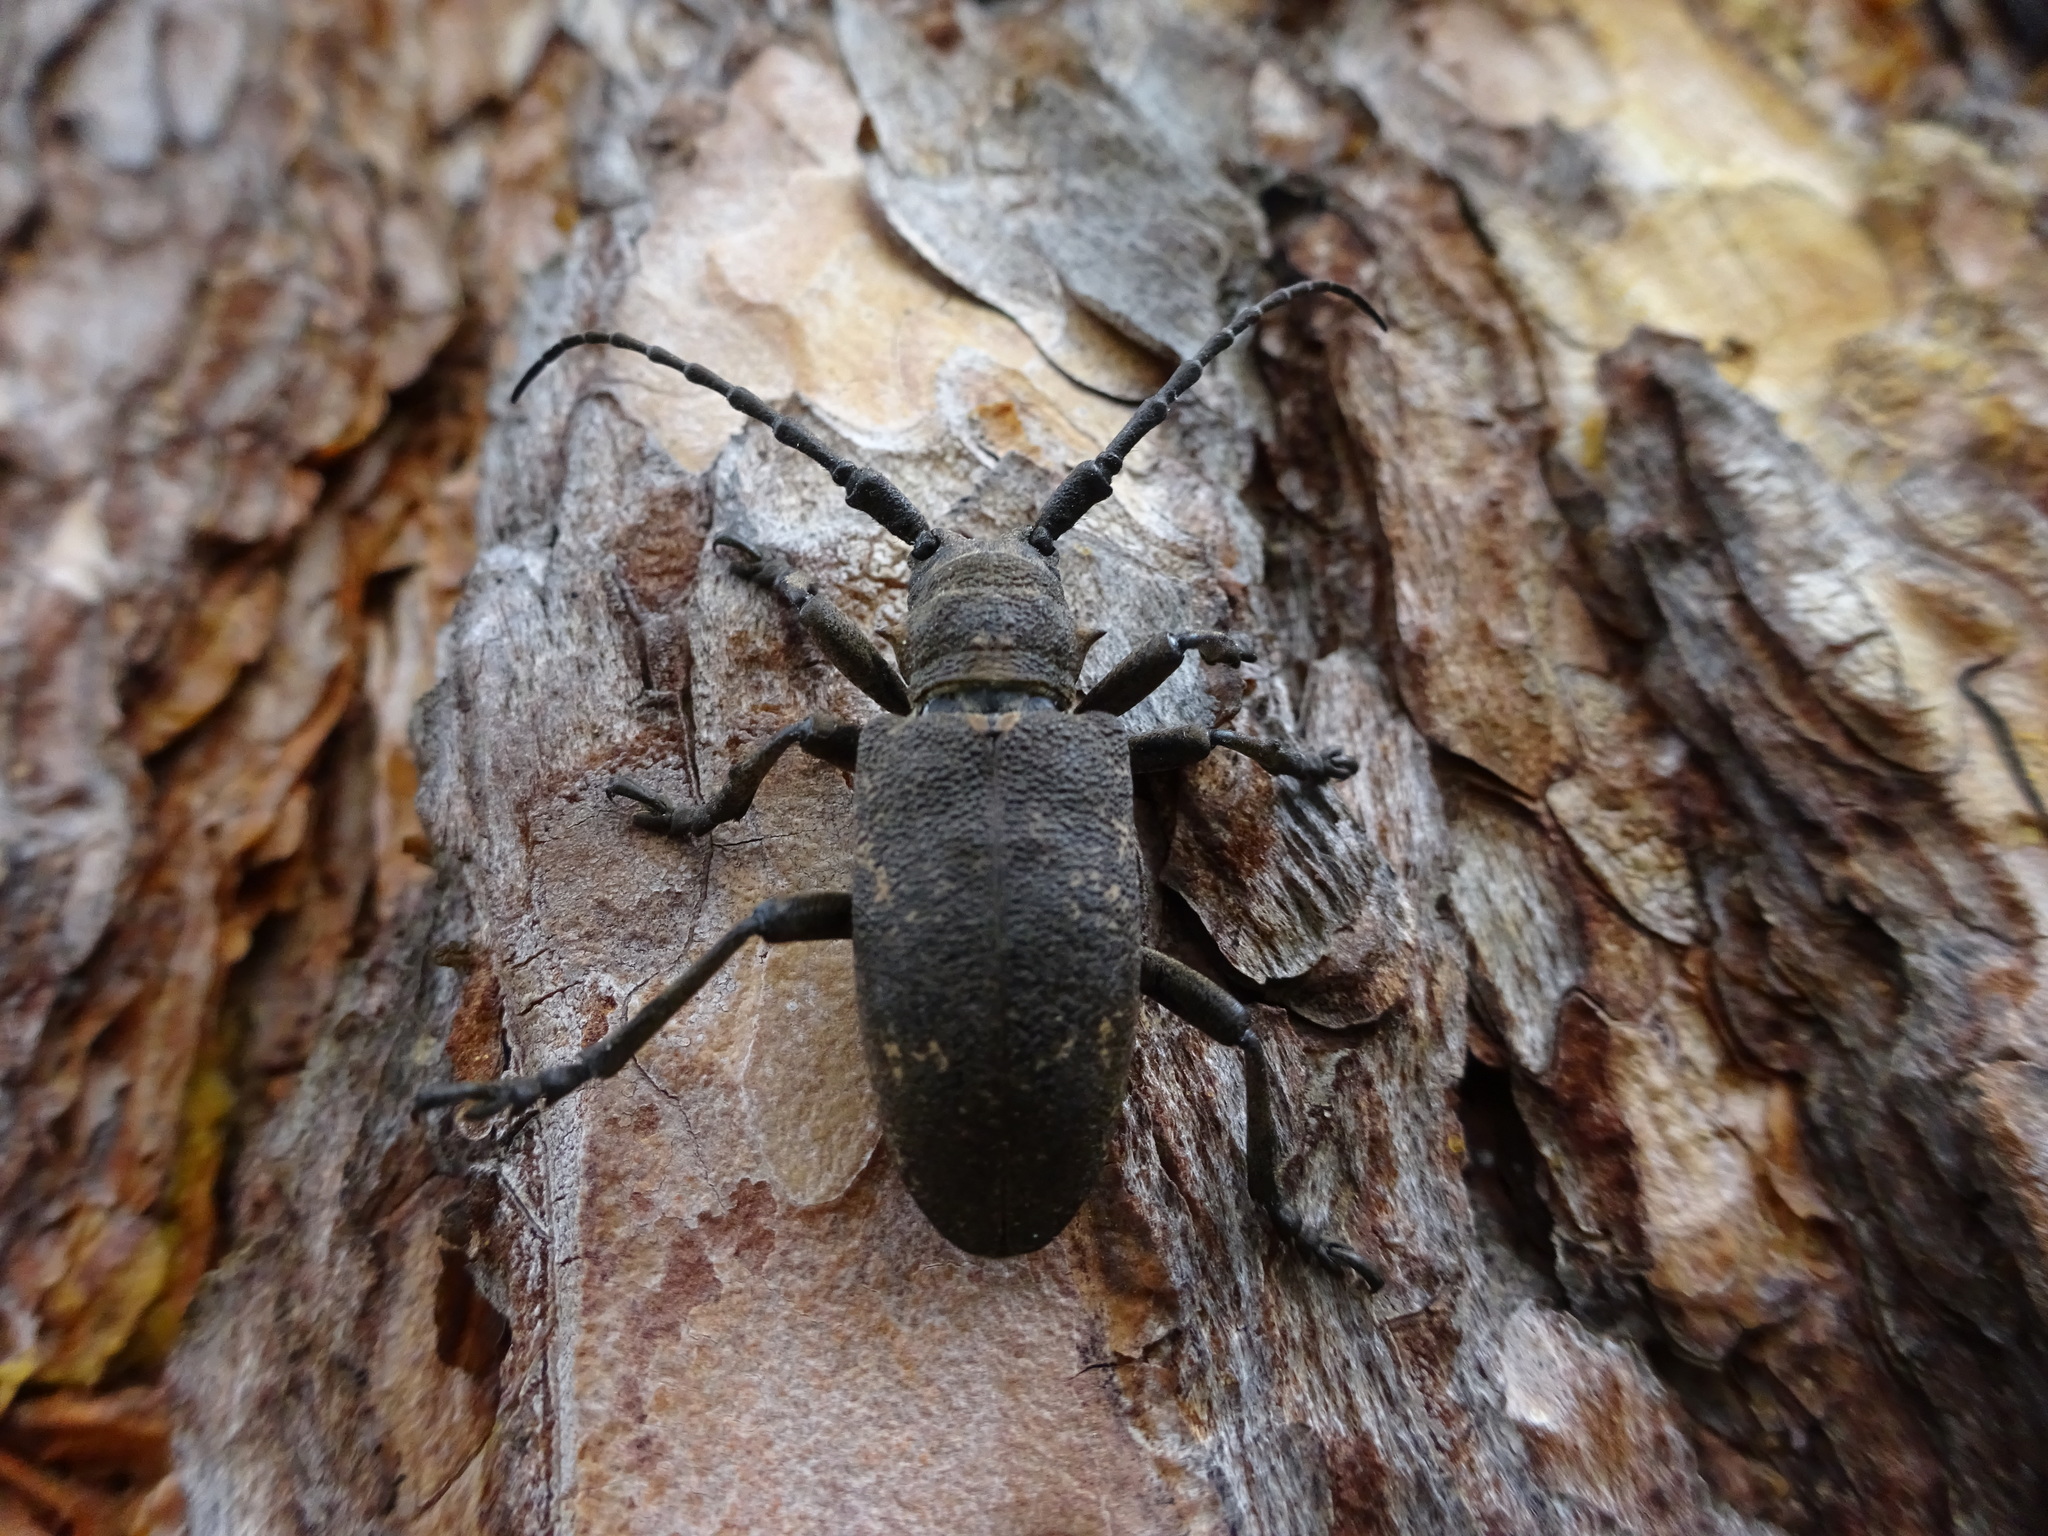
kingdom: Animalia
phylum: Arthropoda
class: Insecta
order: Coleoptera
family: Cerambycidae
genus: Lamia
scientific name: Lamia textor
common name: Weaver beetle
